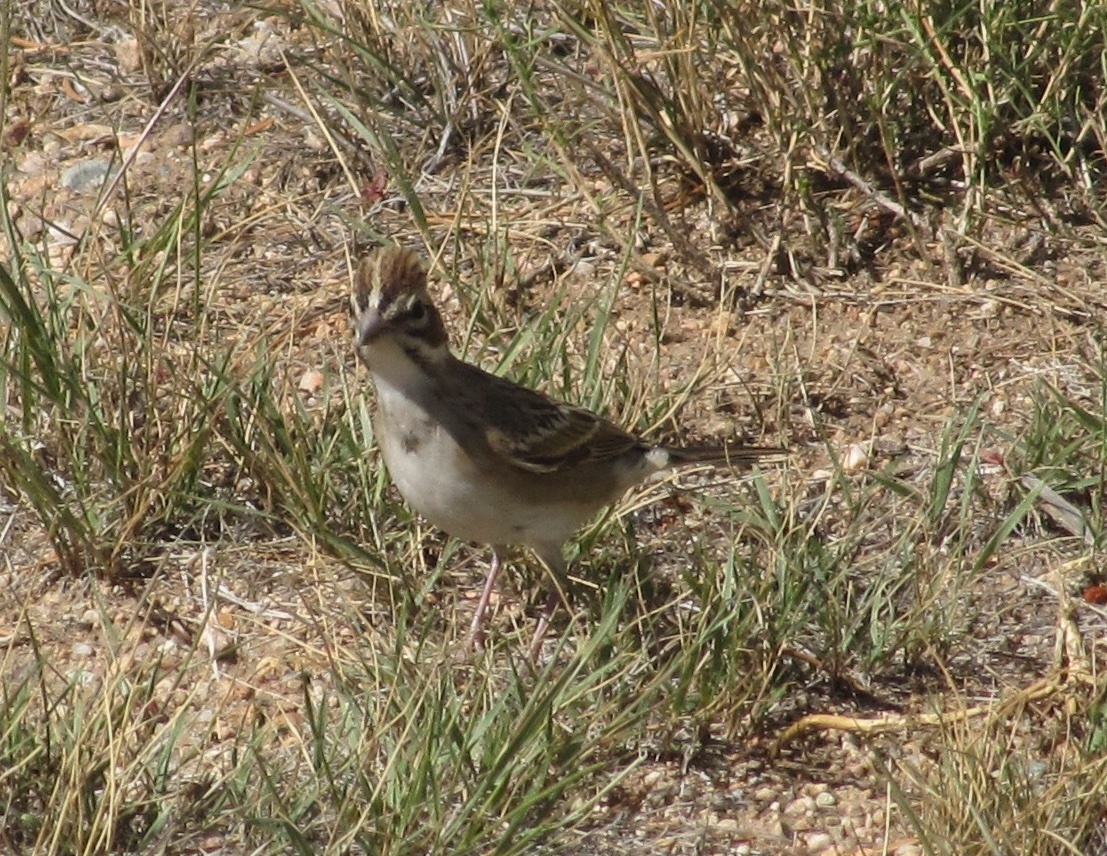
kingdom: Animalia
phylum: Chordata
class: Aves
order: Passeriformes
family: Passerellidae
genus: Chondestes
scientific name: Chondestes grammacus
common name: Lark sparrow
